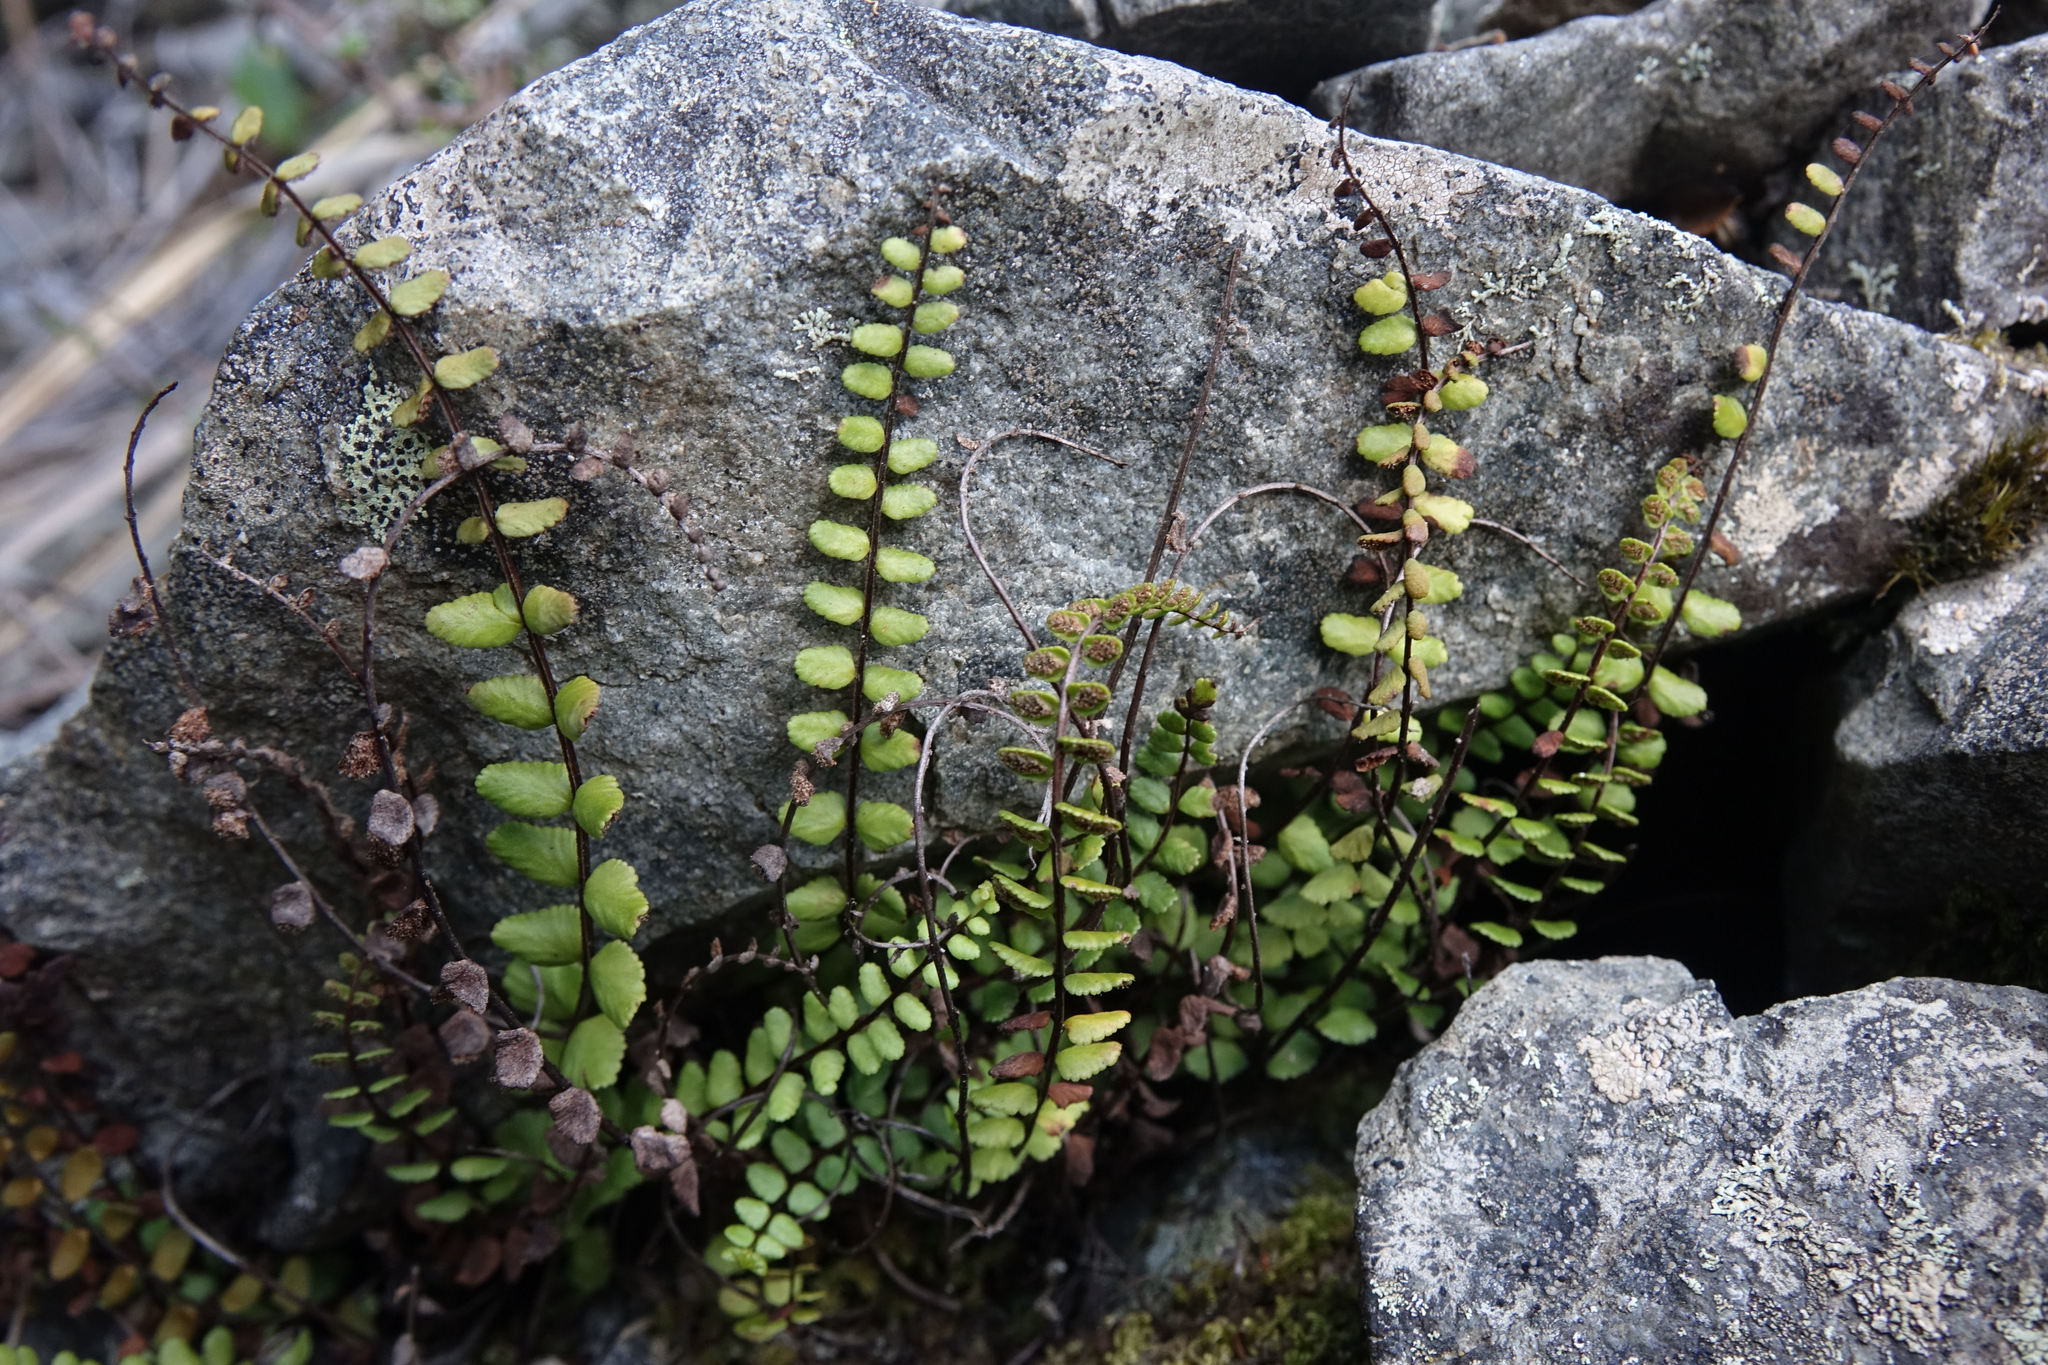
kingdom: Plantae
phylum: Tracheophyta
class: Polypodiopsida
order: Polypodiales
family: Aspleniaceae
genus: Asplenium
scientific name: Asplenium trichomanes
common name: Maidenhair spleenwort
